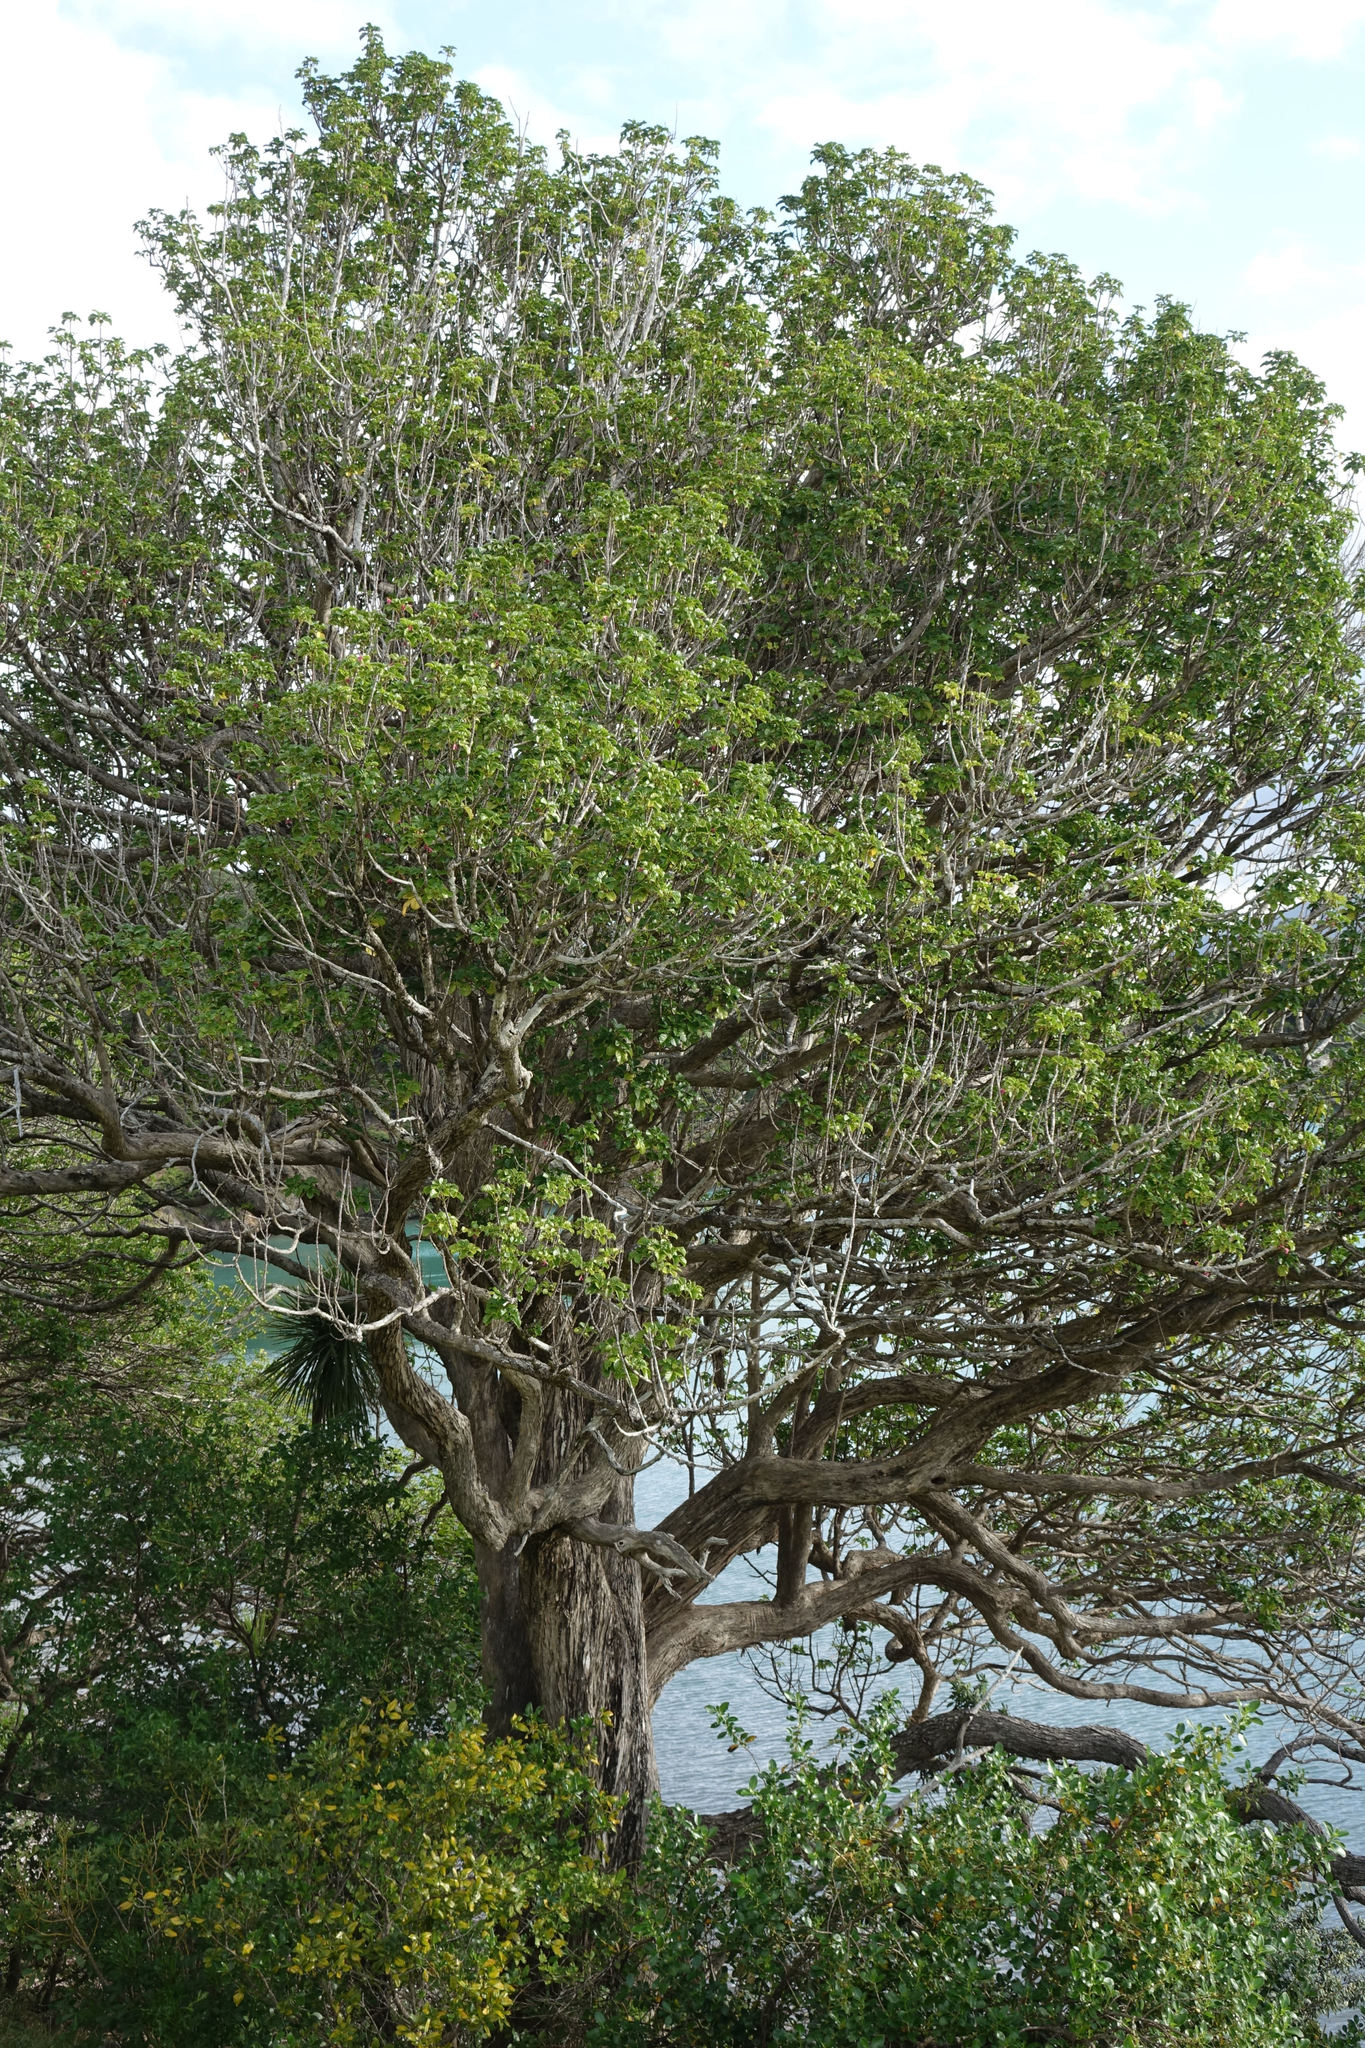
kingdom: Plantae
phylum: Tracheophyta
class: Magnoliopsida
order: Lamiales
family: Lamiaceae
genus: Vitex
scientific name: Vitex lucens
